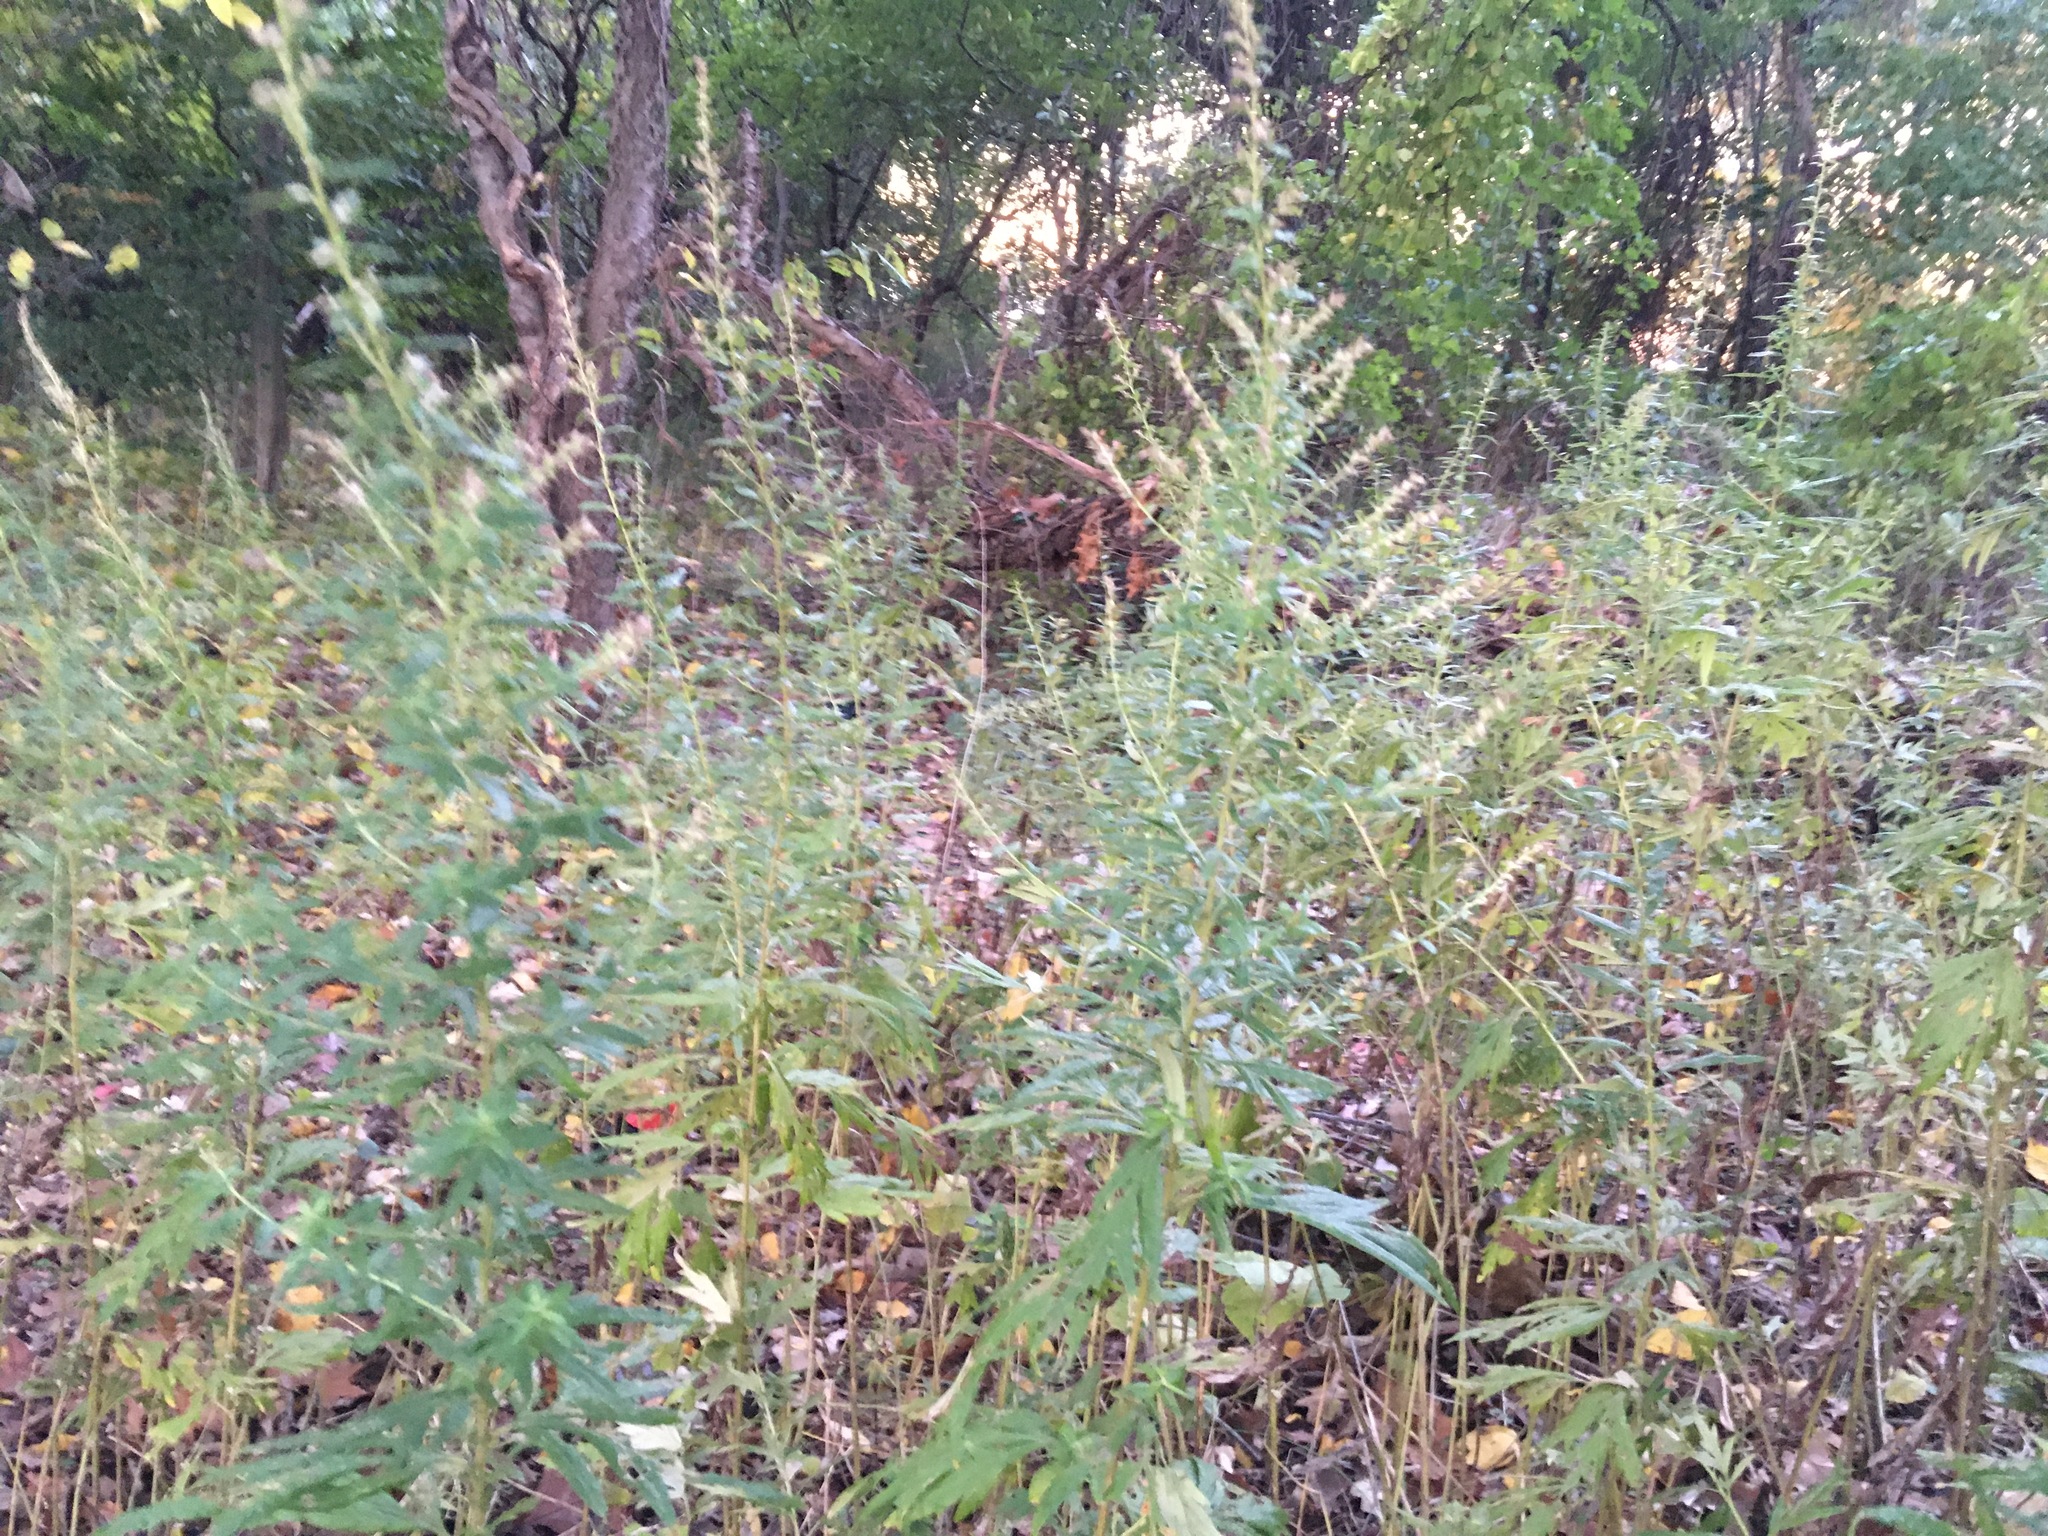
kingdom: Plantae
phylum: Tracheophyta
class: Magnoliopsida
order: Asterales
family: Asteraceae
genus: Artemisia
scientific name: Artemisia vulgaris
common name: Mugwort
